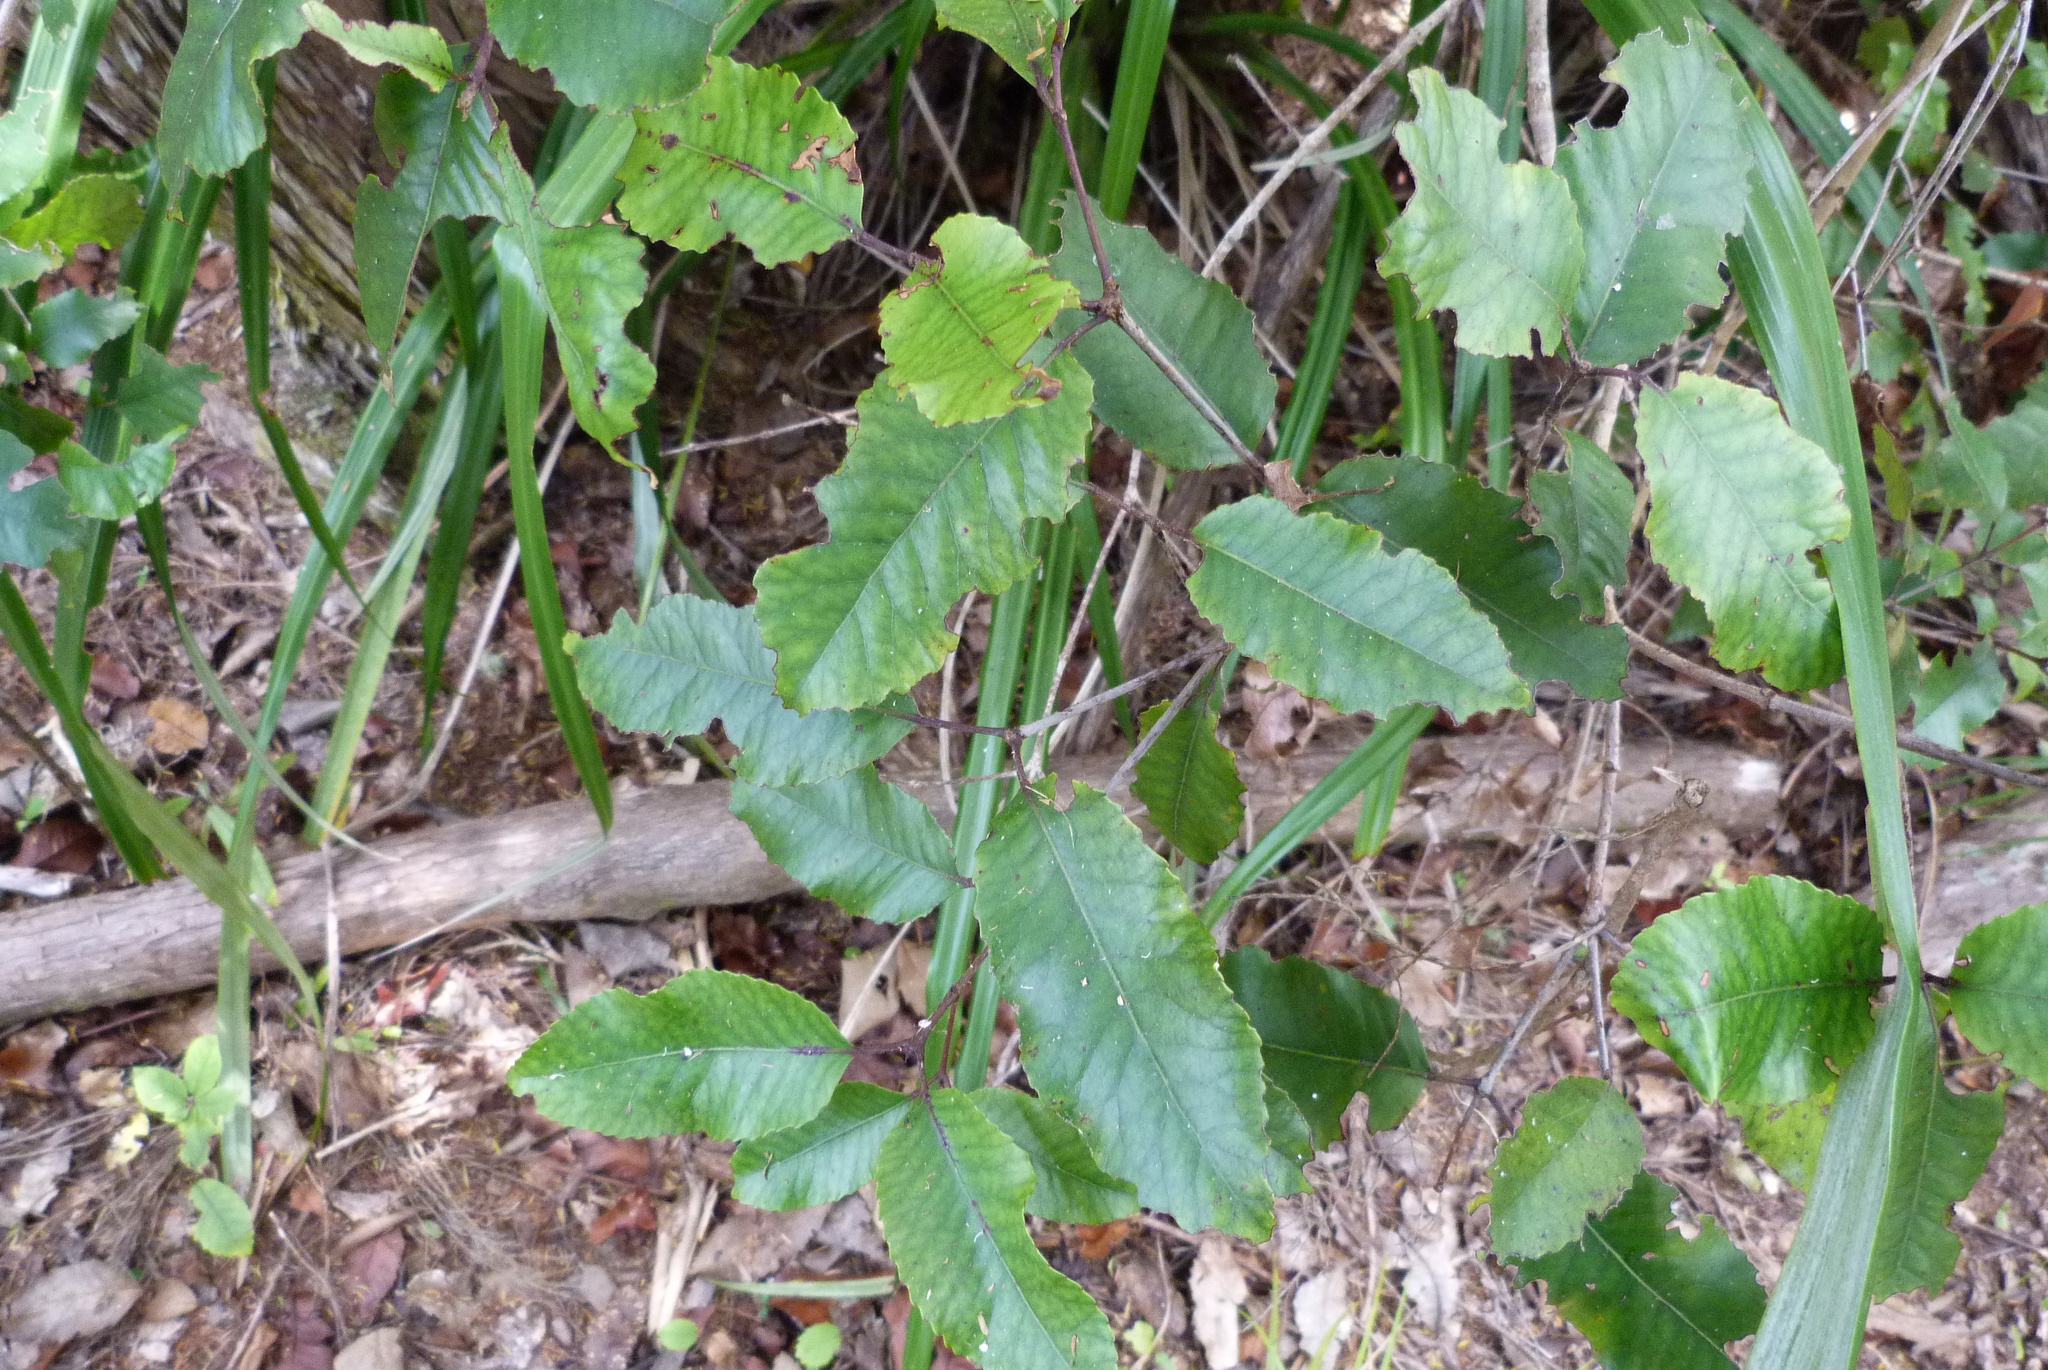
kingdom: Plantae
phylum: Tracheophyta
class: Magnoliopsida
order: Oxalidales
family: Cunoniaceae
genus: Pterophylla
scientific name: Pterophylla racemosa
